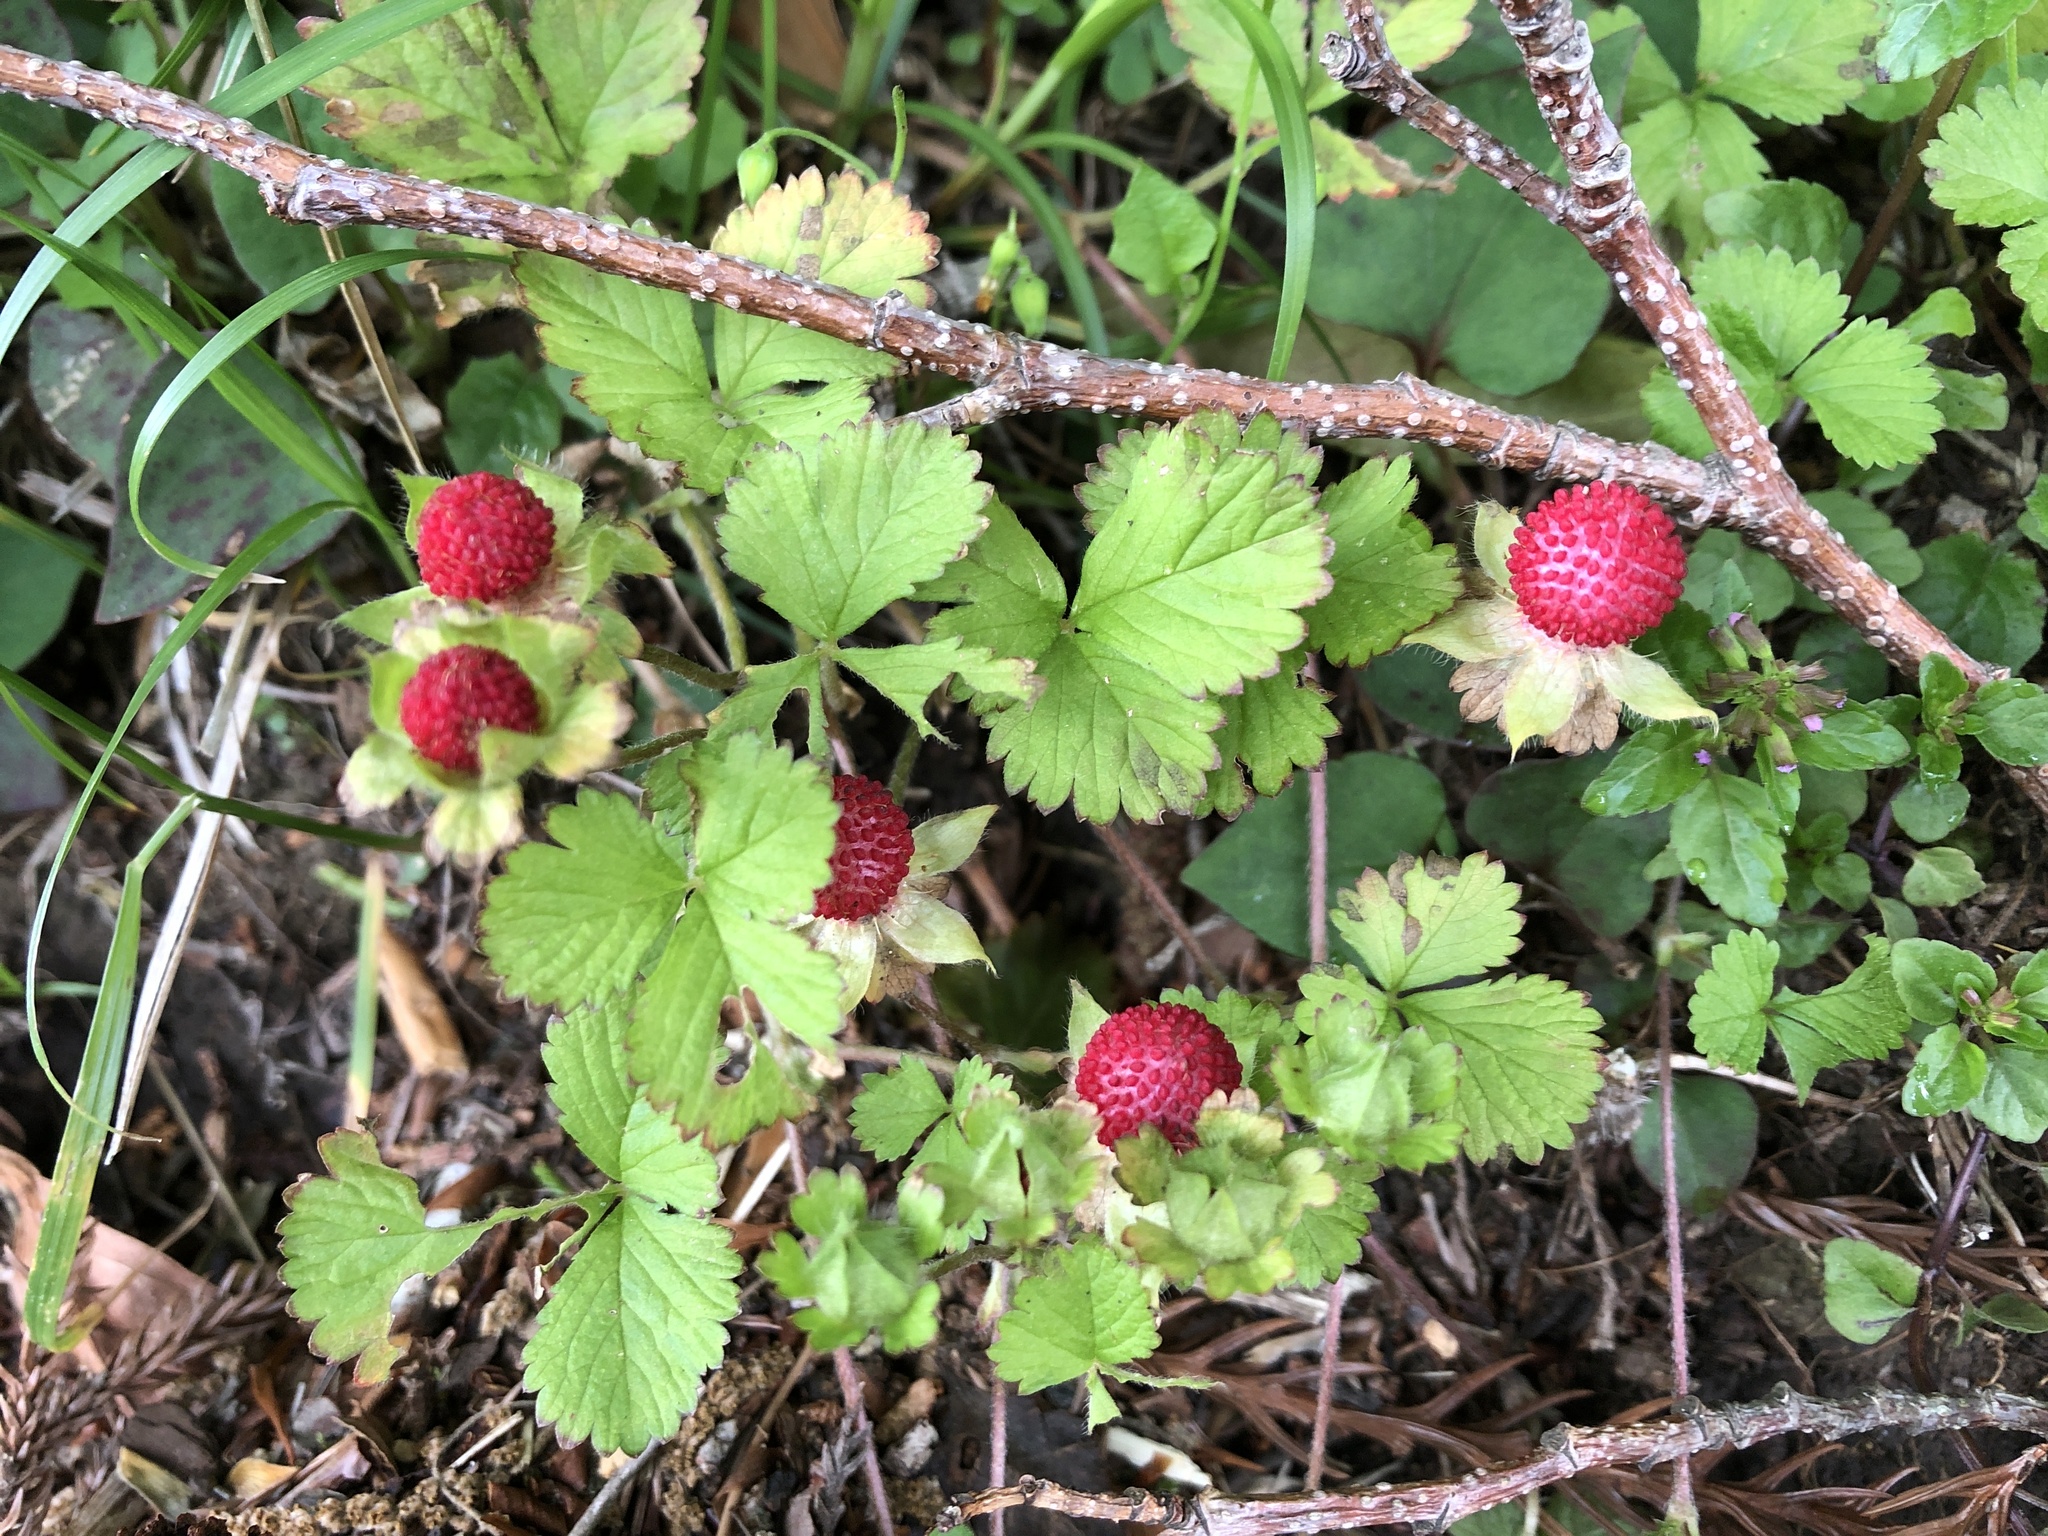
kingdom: Plantae
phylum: Tracheophyta
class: Magnoliopsida
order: Rosales
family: Rosaceae
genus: Potentilla
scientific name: Potentilla wallichiana
